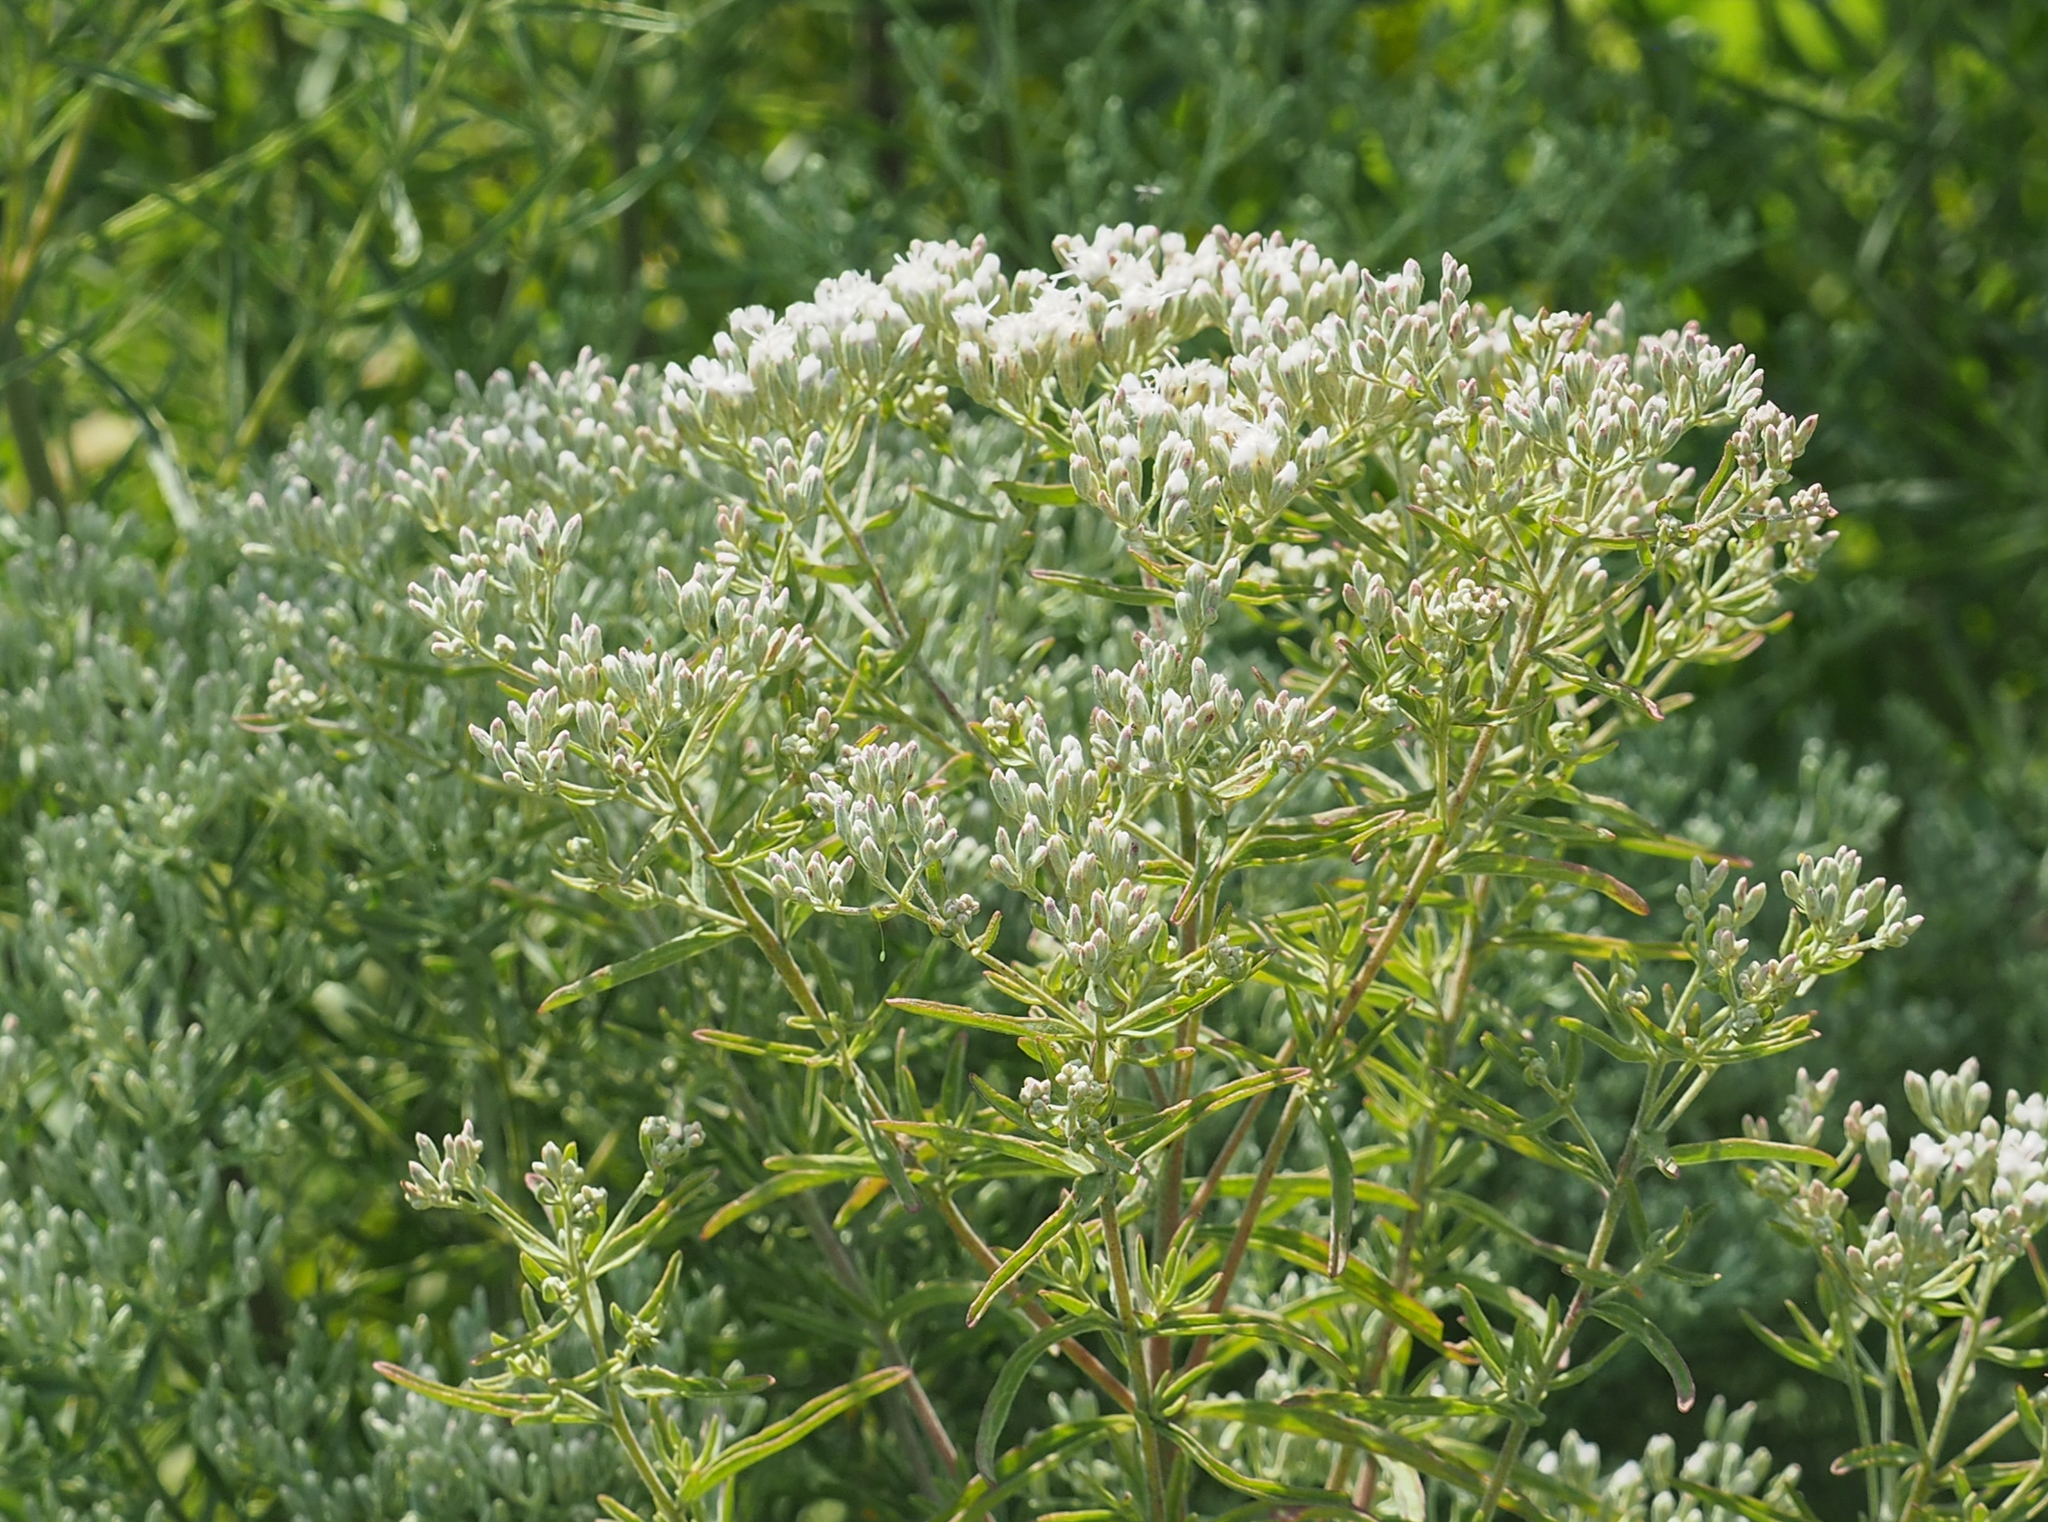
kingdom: Plantae
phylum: Tracheophyta
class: Magnoliopsida
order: Asterales
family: Asteraceae
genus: Eupatorium
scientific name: Eupatorium hyssopifolium
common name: Hyssop-leaf thoroughwort
